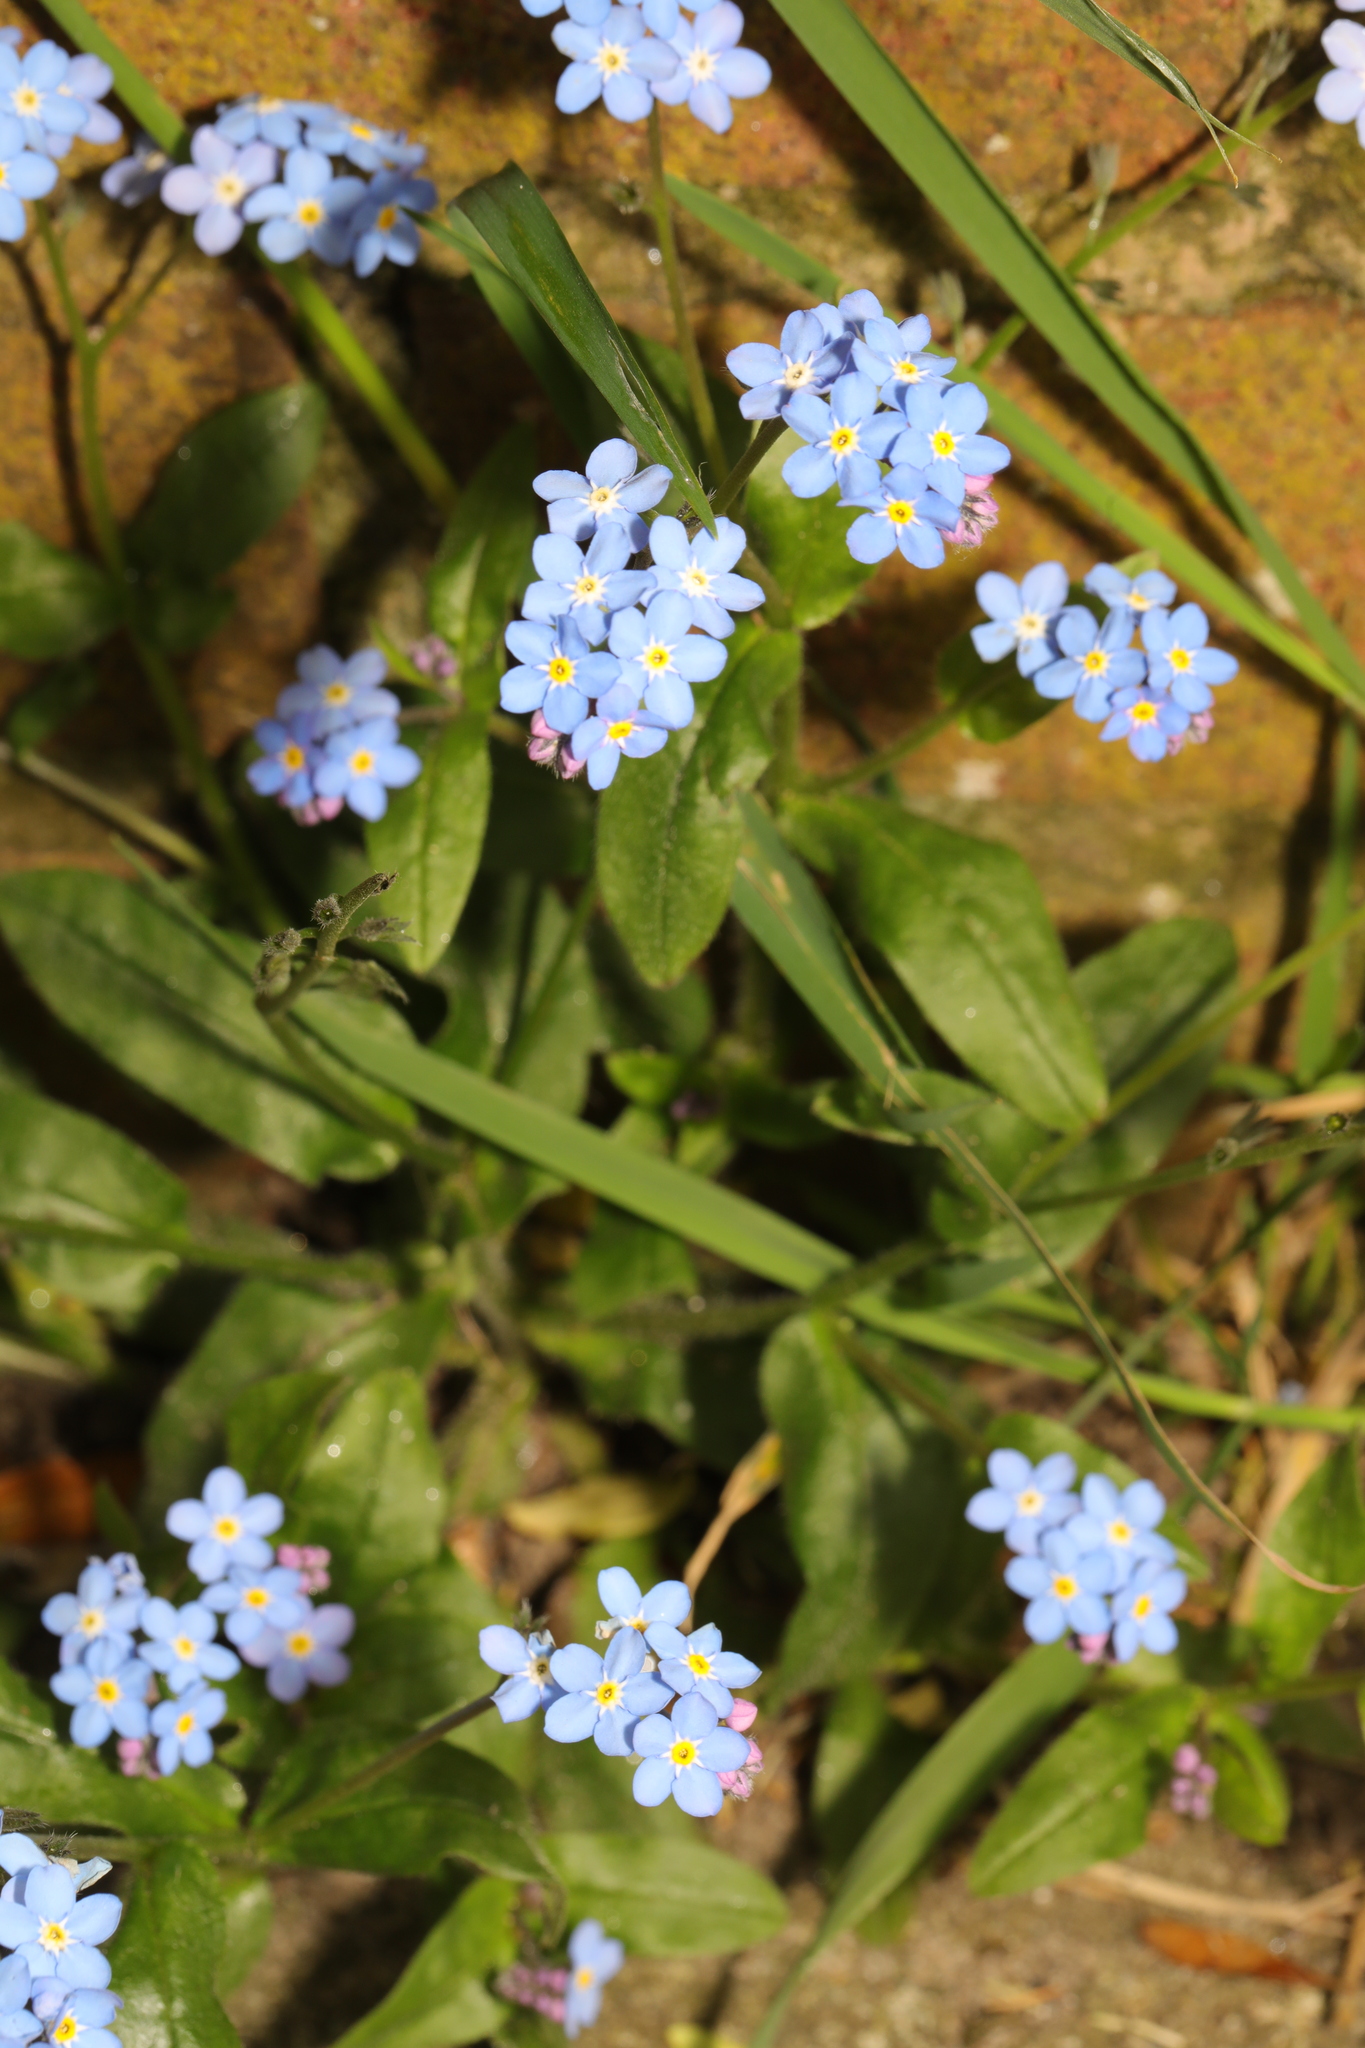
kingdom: Plantae
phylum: Tracheophyta
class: Magnoliopsida
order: Boraginales
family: Boraginaceae
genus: Myosotis
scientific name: Myosotis sylvatica
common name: Wood forget-me-not
